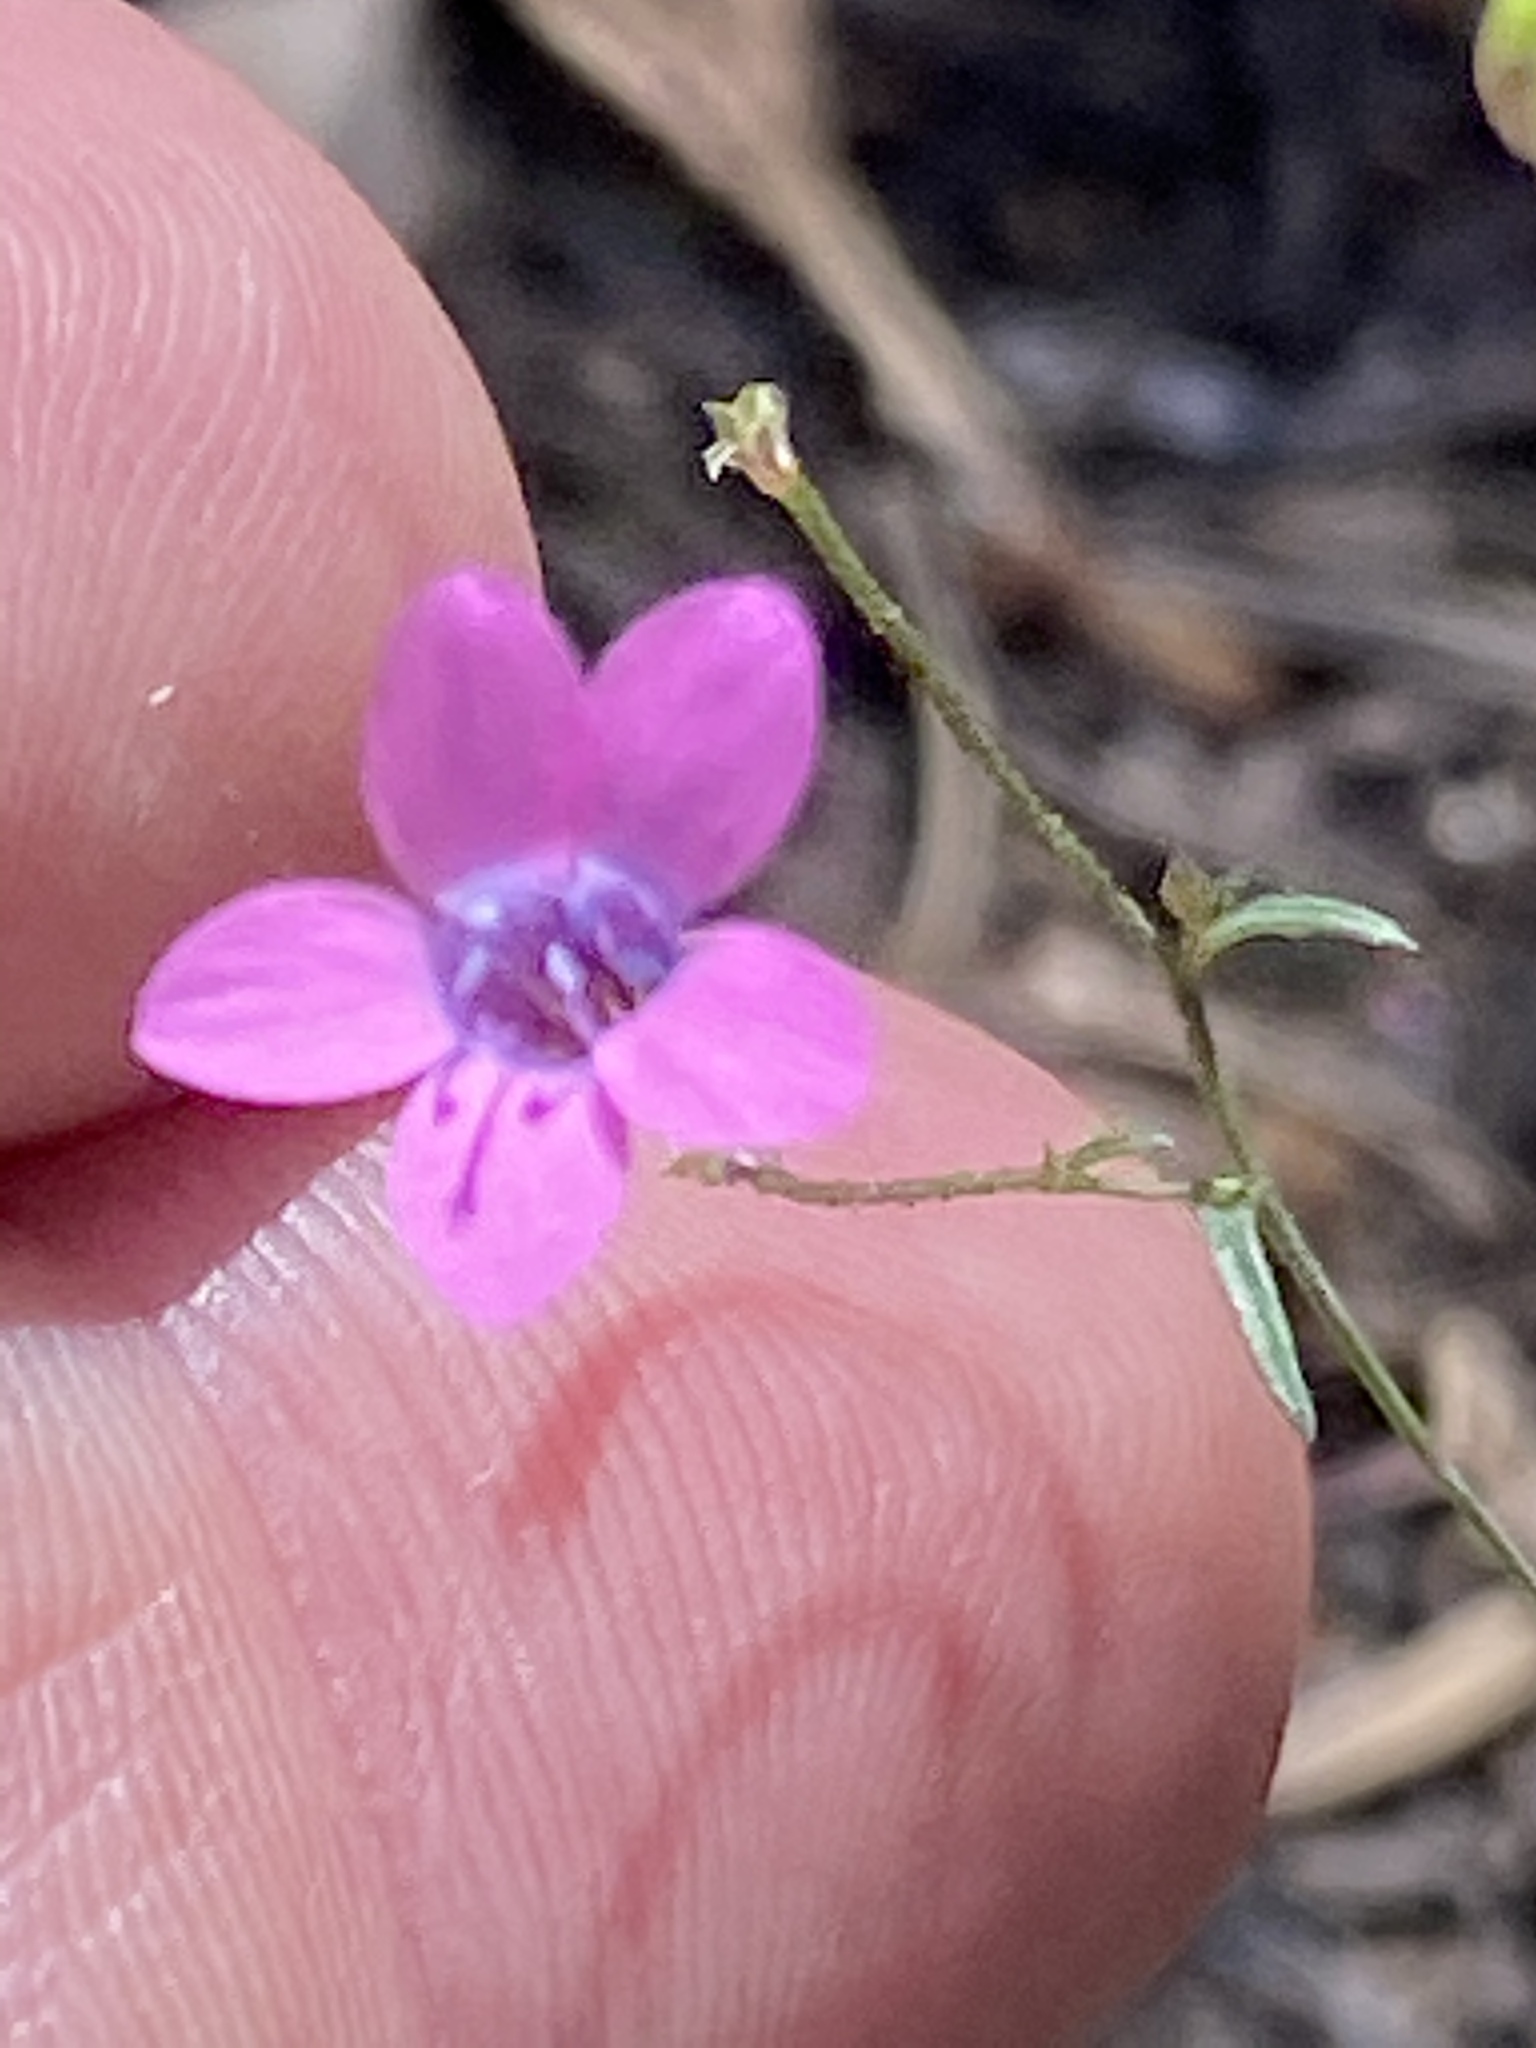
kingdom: Plantae
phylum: Tracheophyta
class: Magnoliopsida
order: Ericales
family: Polemoniaceae
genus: Navarretia
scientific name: Navarretia leptalea
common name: Bridges' pincushionplant
